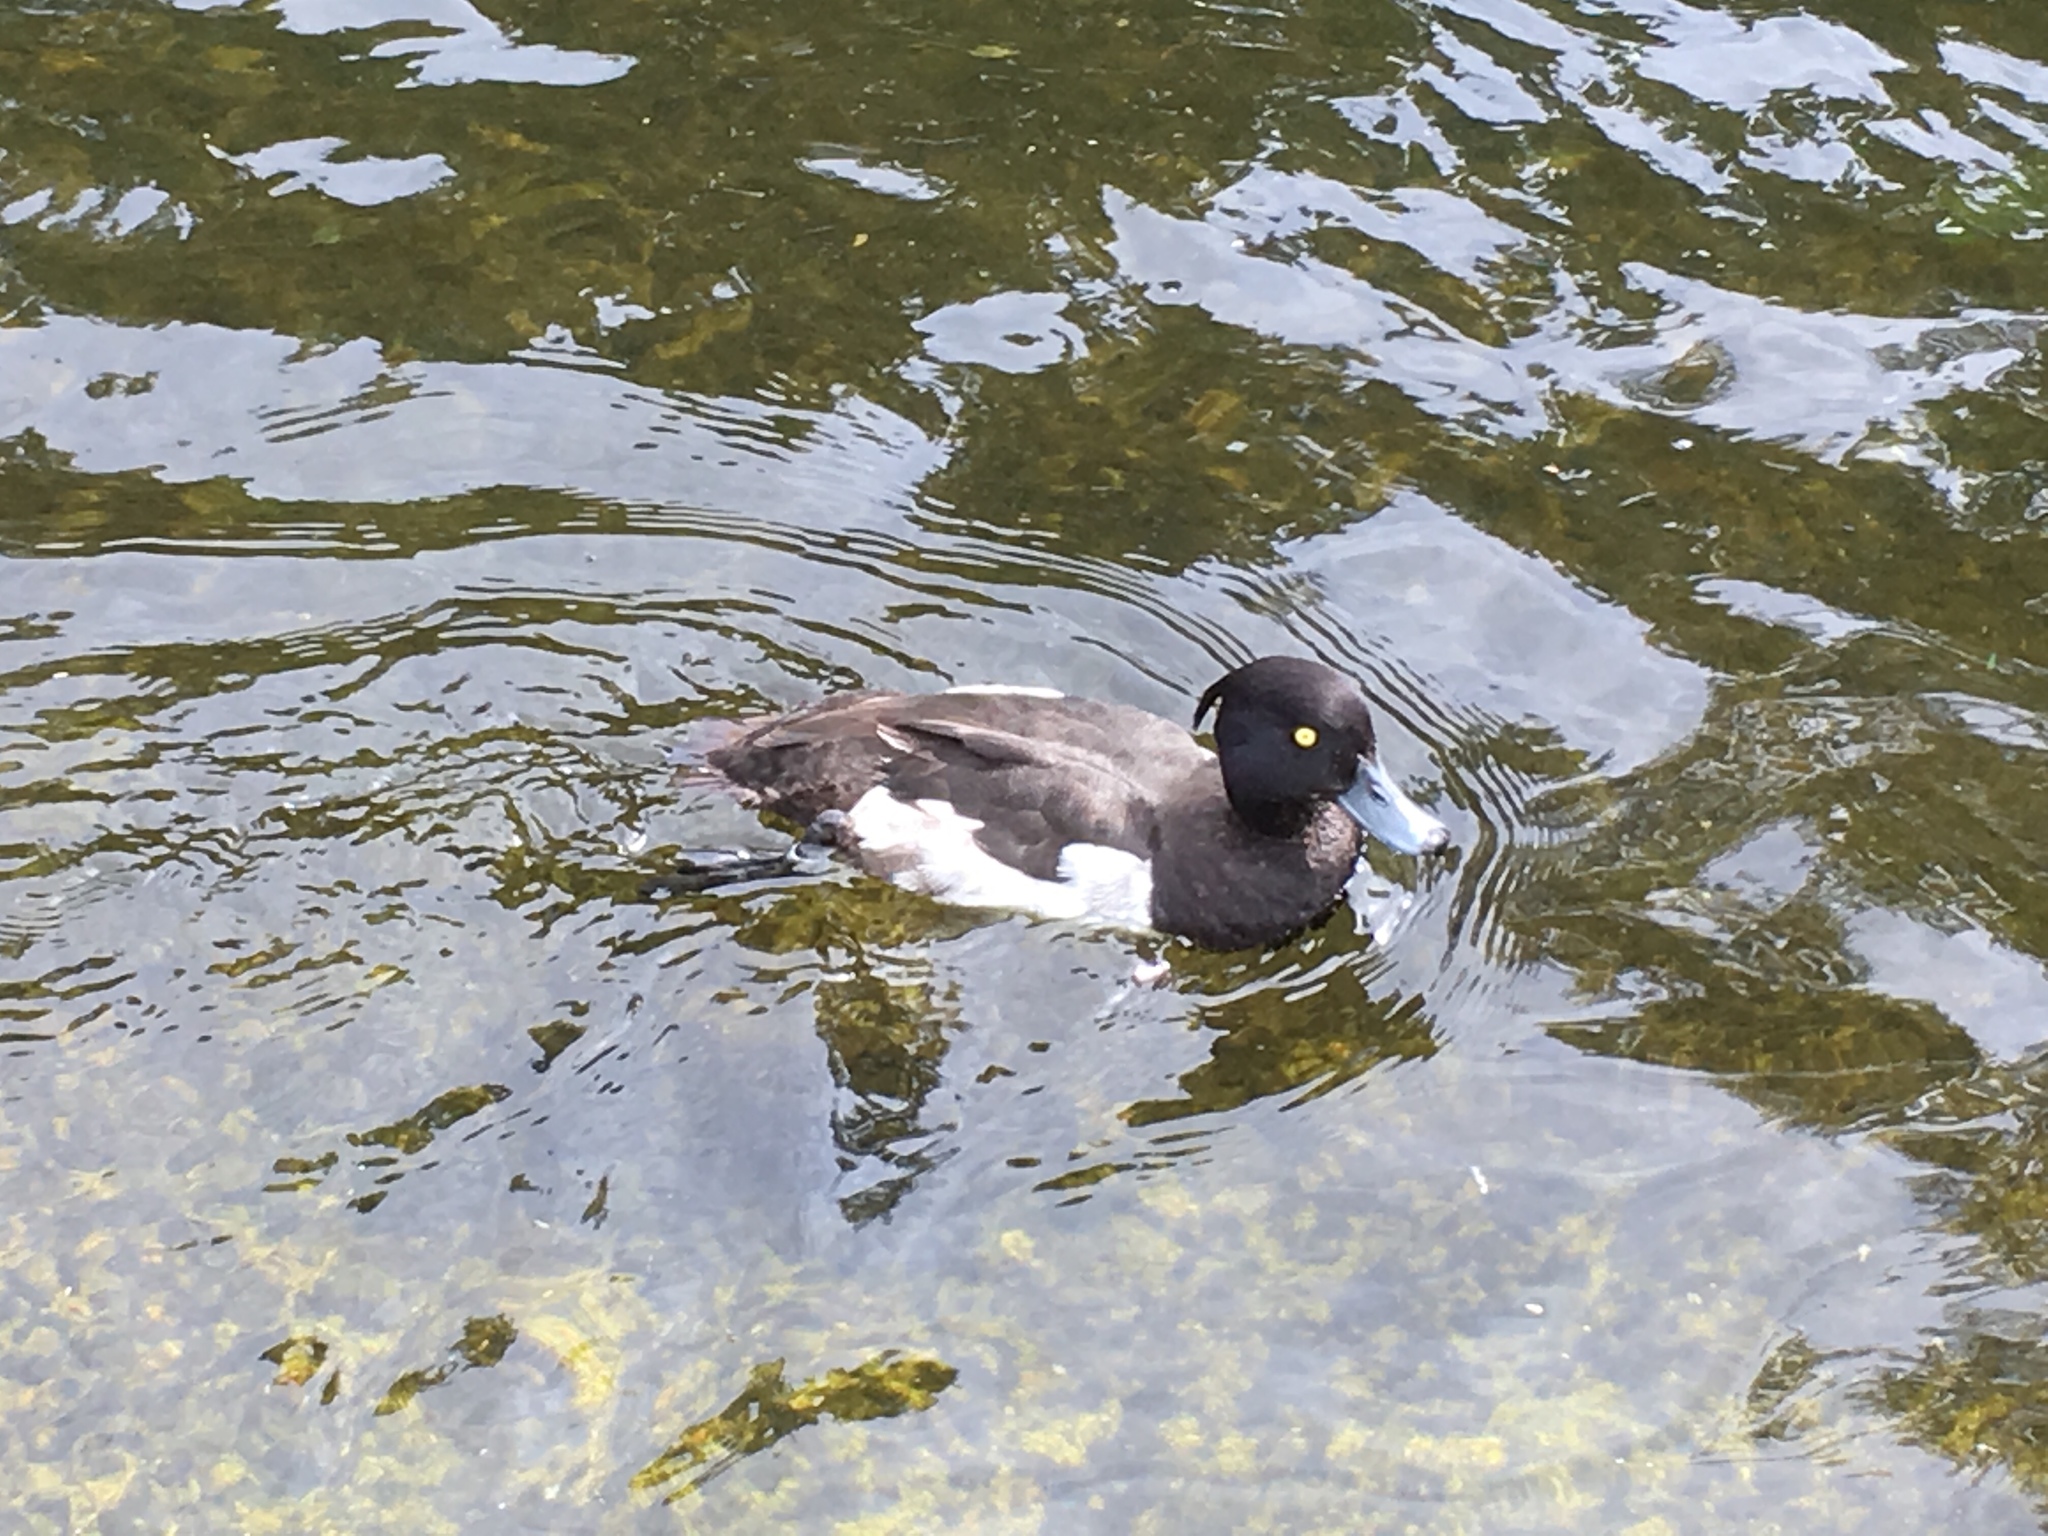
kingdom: Animalia
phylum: Chordata
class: Aves
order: Anseriformes
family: Anatidae
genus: Aythya
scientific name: Aythya fuligula
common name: Tufted duck
